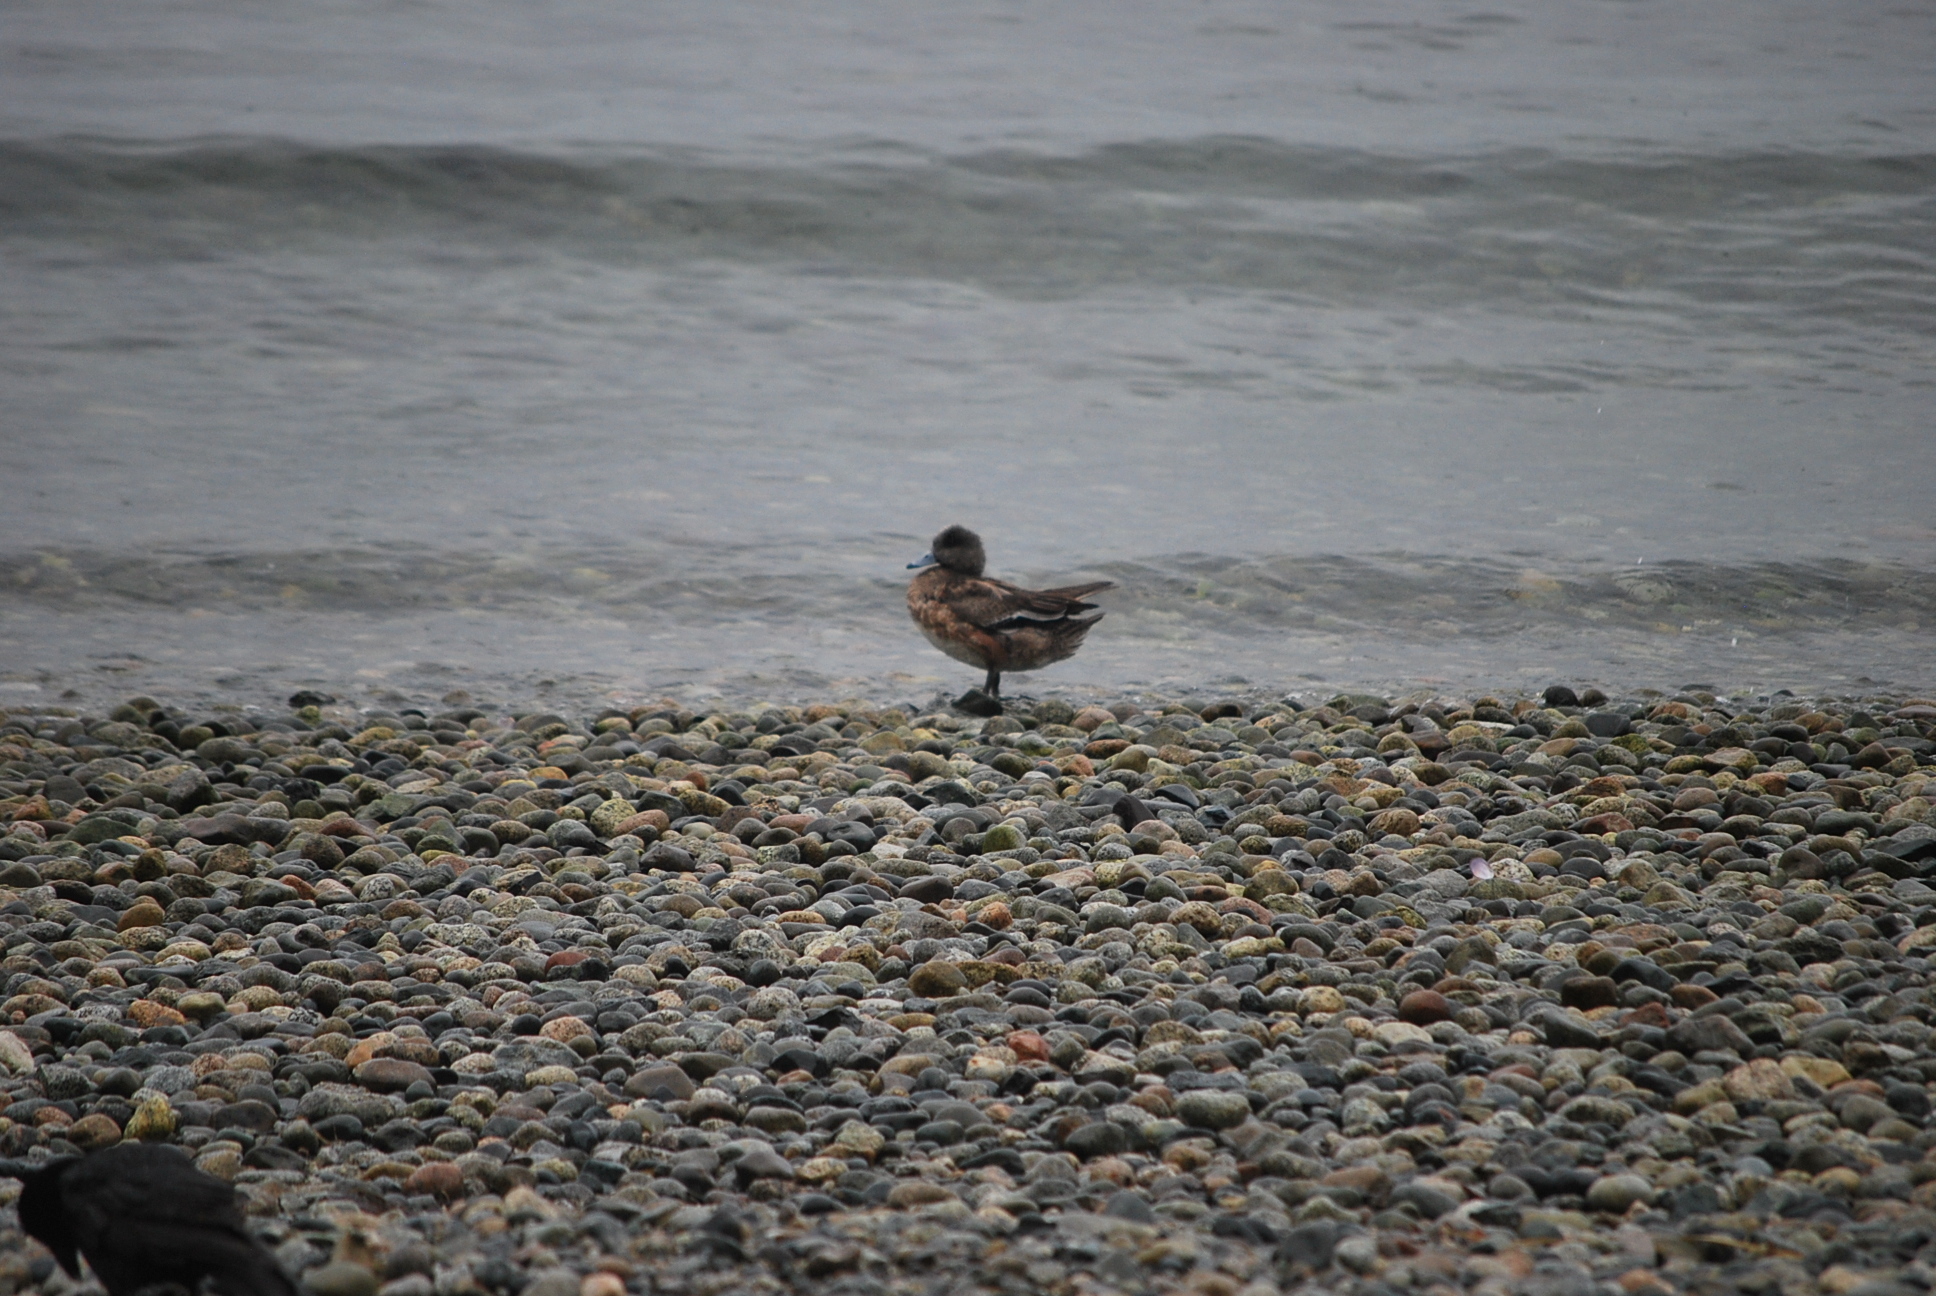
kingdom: Animalia
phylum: Chordata
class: Aves
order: Anseriformes
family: Anatidae
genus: Mareca
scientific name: Mareca americana
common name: American wigeon
